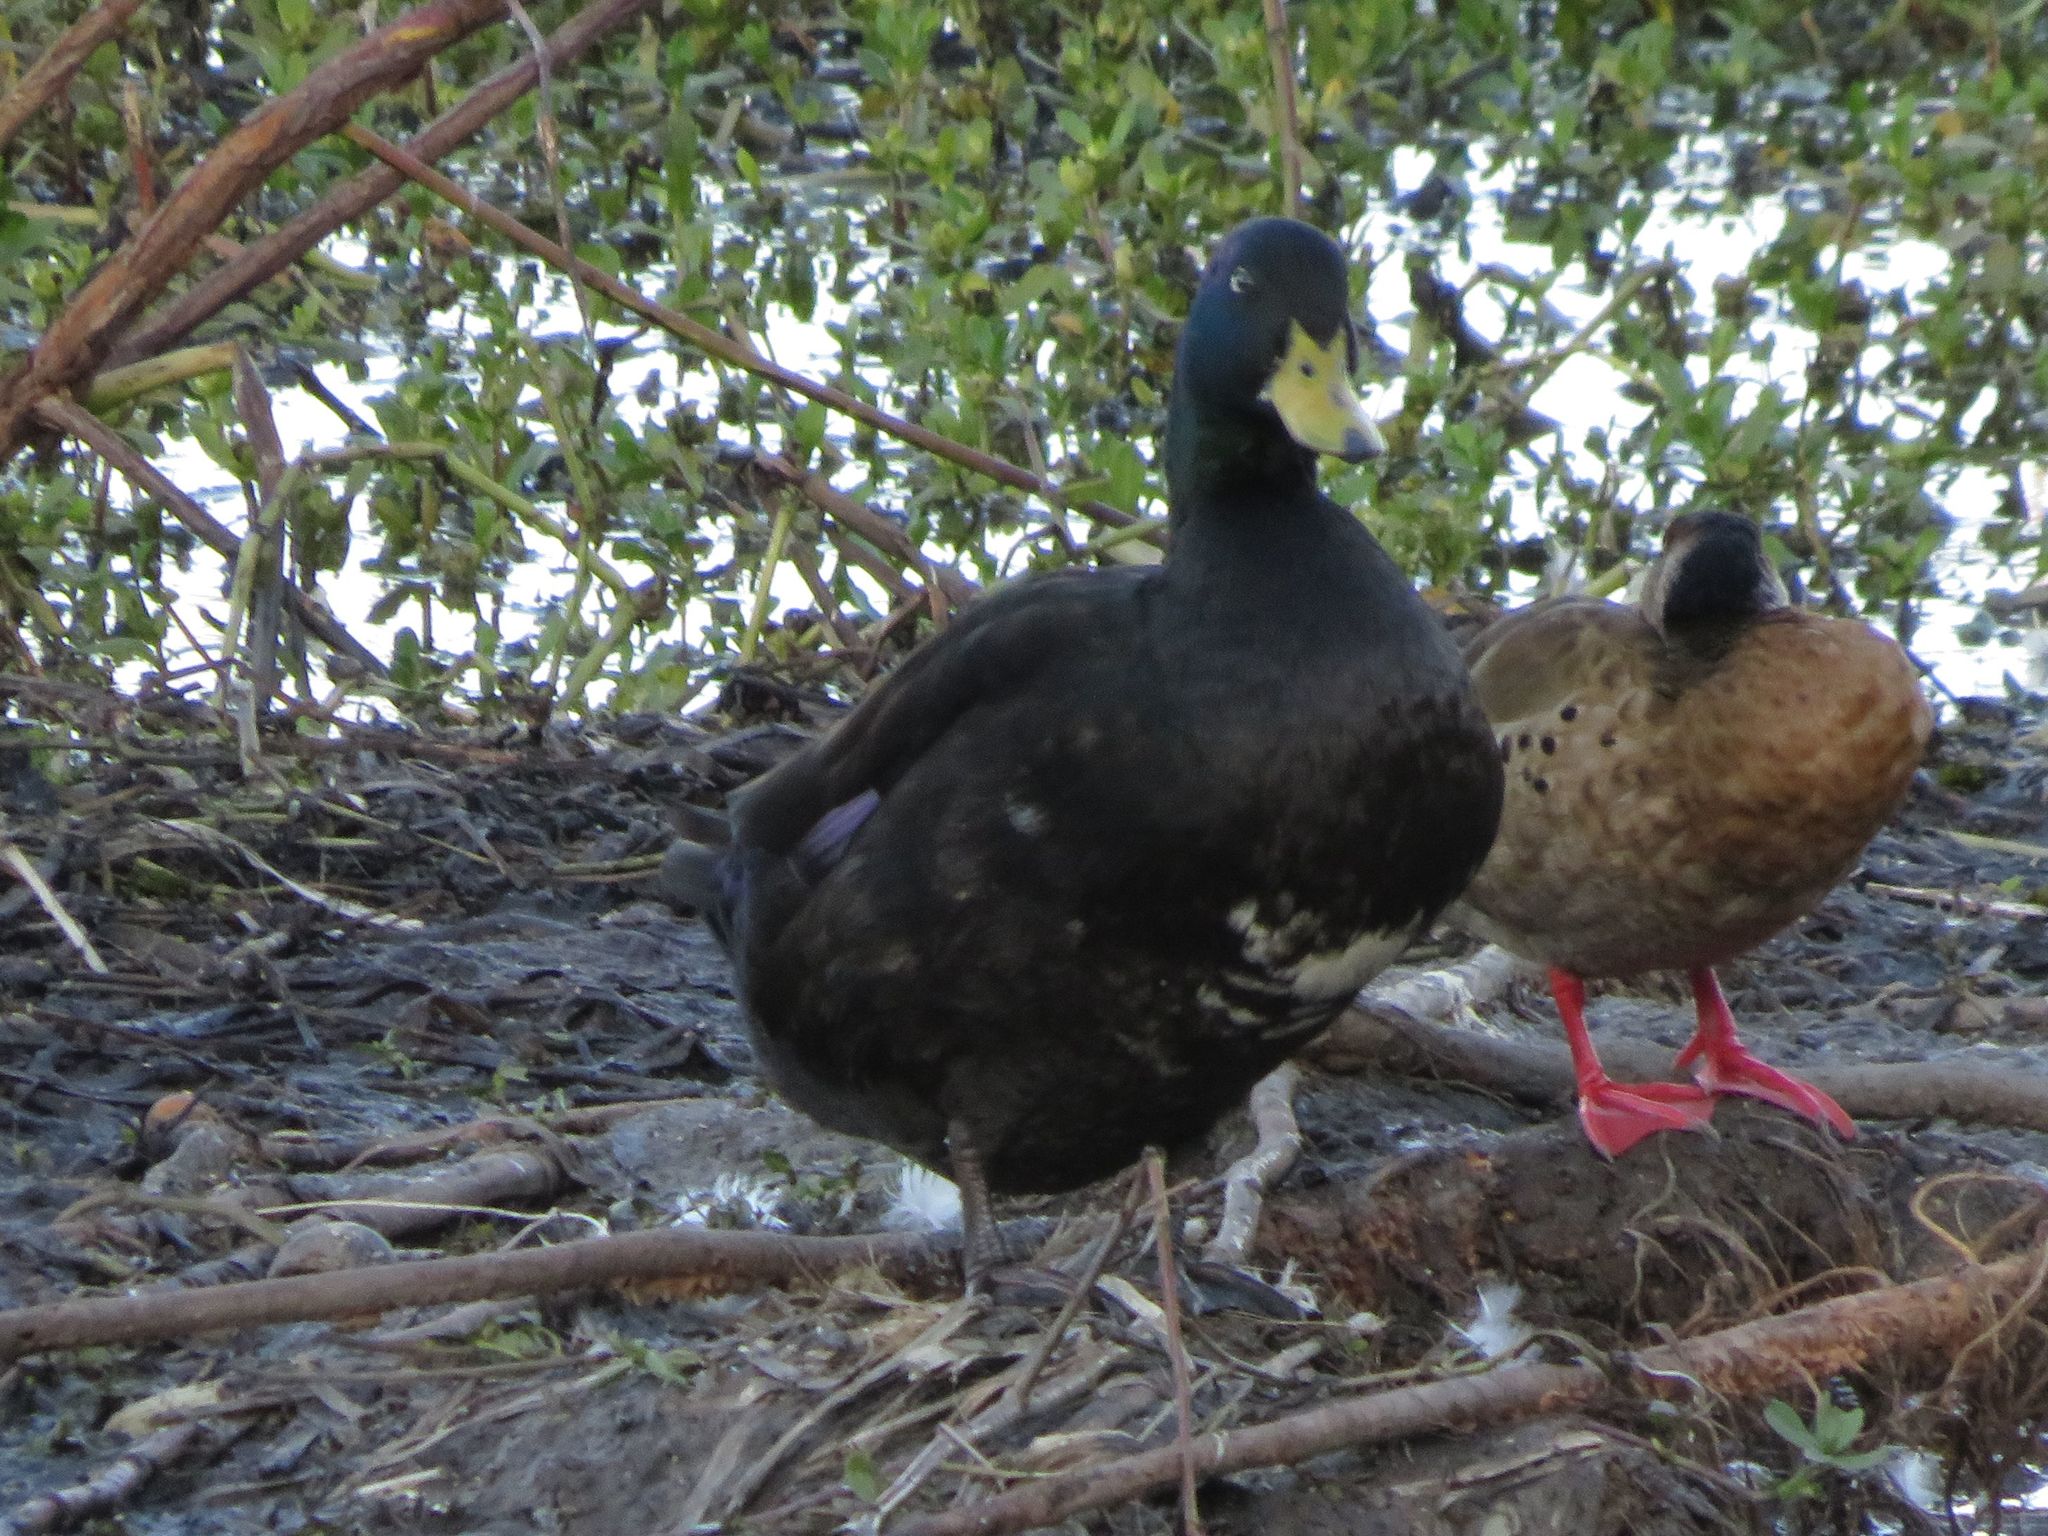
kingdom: Animalia
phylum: Chordata
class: Aves
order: Anseriformes
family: Anatidae
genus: Anas
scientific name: Anas platyrhynchos
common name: Mallard
